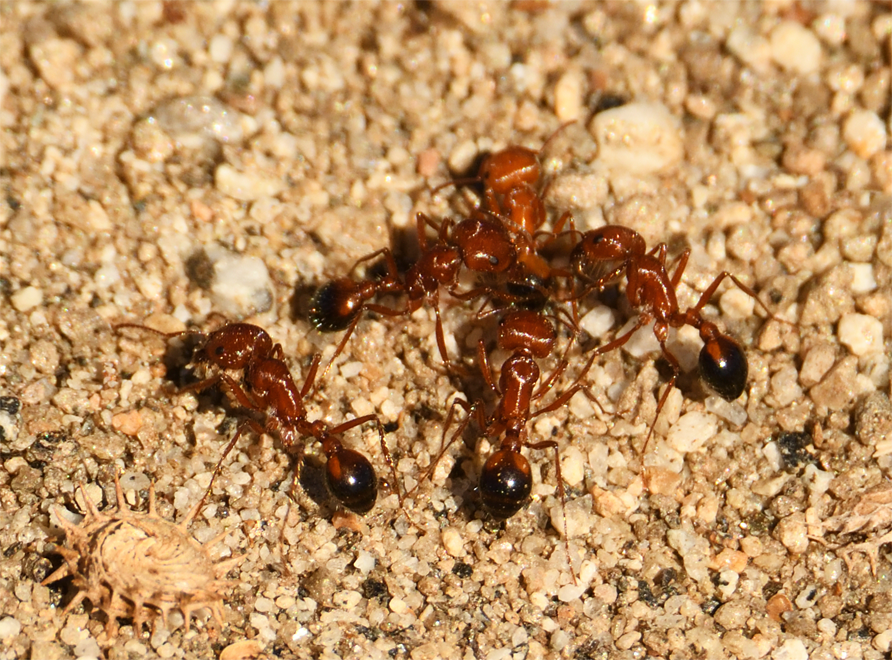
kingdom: Animalia
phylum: Arthropoda
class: Insecta
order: Hymenoptera
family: Formicidae
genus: Pogonomyrmex
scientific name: Pogonomyrmex californicus
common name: California harvester ant
